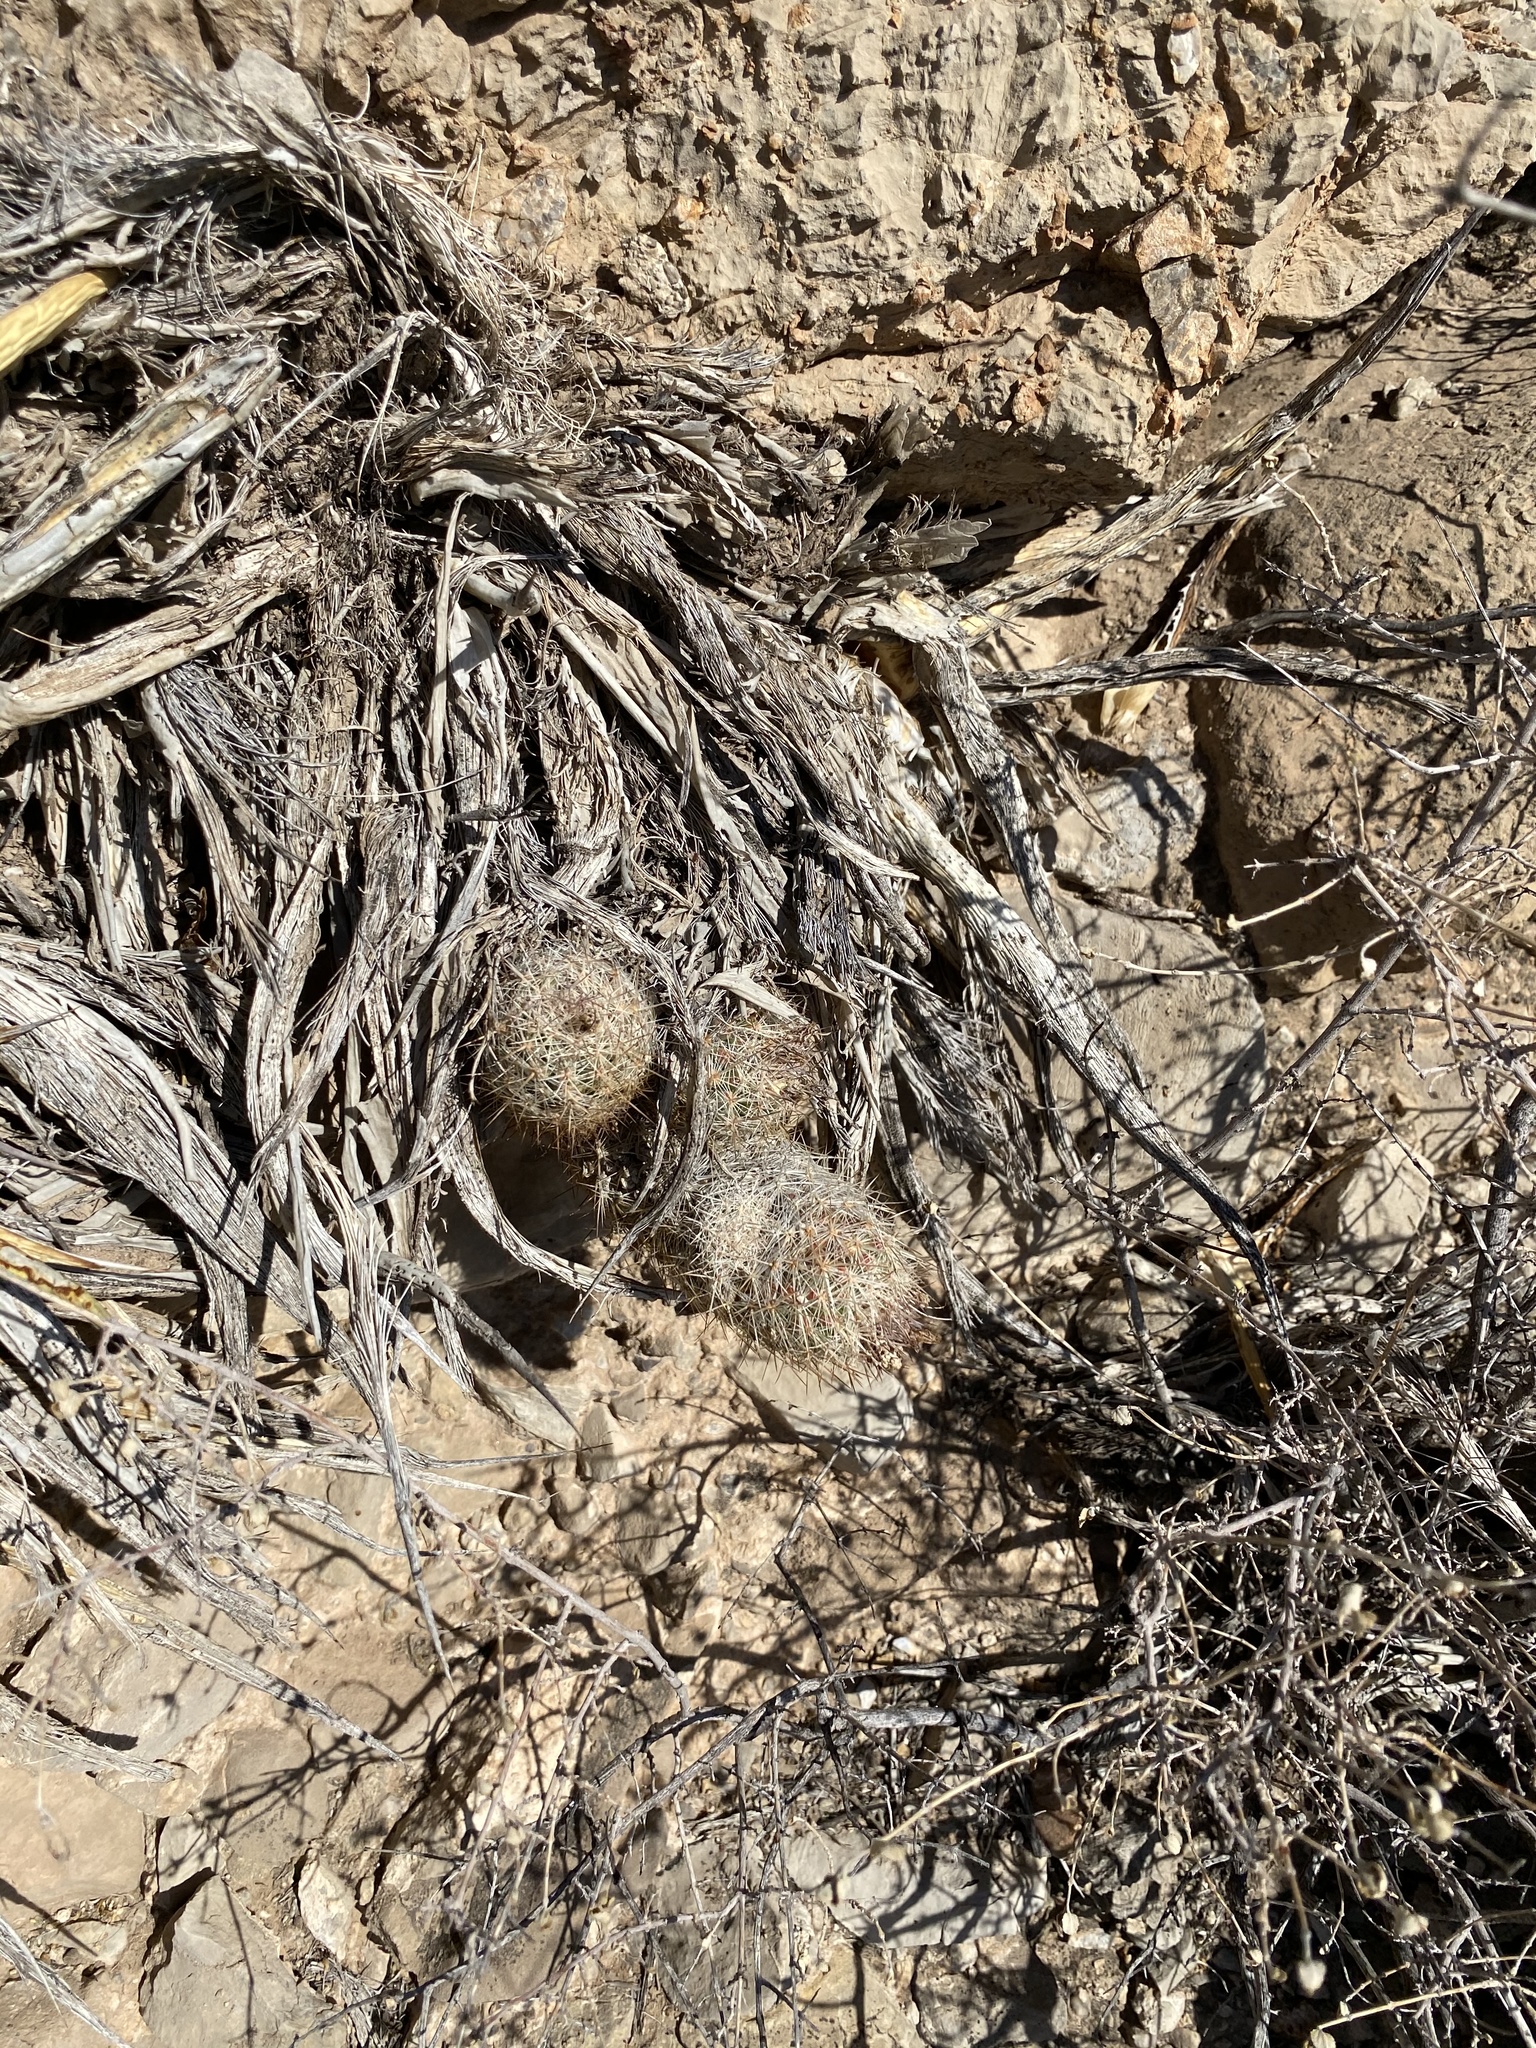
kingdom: Plantae
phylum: Tracheophyta
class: Magnoliopsida
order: Caryophyllales
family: Cactaceae
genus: Pelecyphora
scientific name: Pelecyphora tuberculosa
